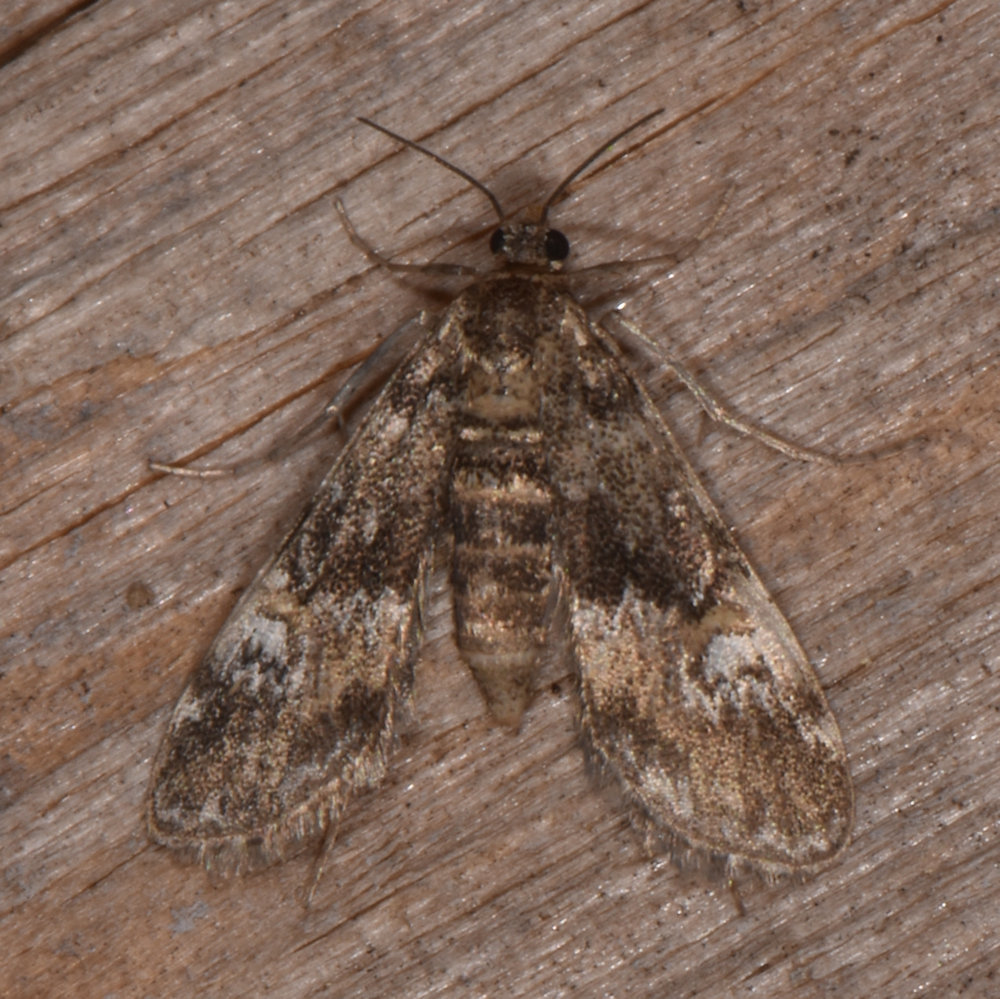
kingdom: Animalia
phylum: Arthropoda
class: Insecta
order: Lepidoptera
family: Crambidae
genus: Elophila
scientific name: Elophila obliteralis
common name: Waterlily leafcutter moth
